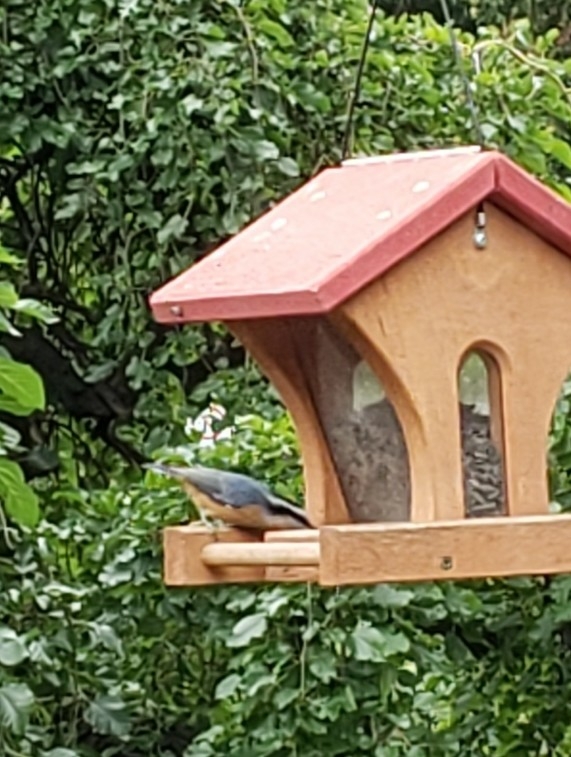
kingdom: Animalia
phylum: Chordata
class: Aves
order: Passeriformes
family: Sittidae
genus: Sitta
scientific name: Sitta canadensis
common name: Red-breasted nuthatch
